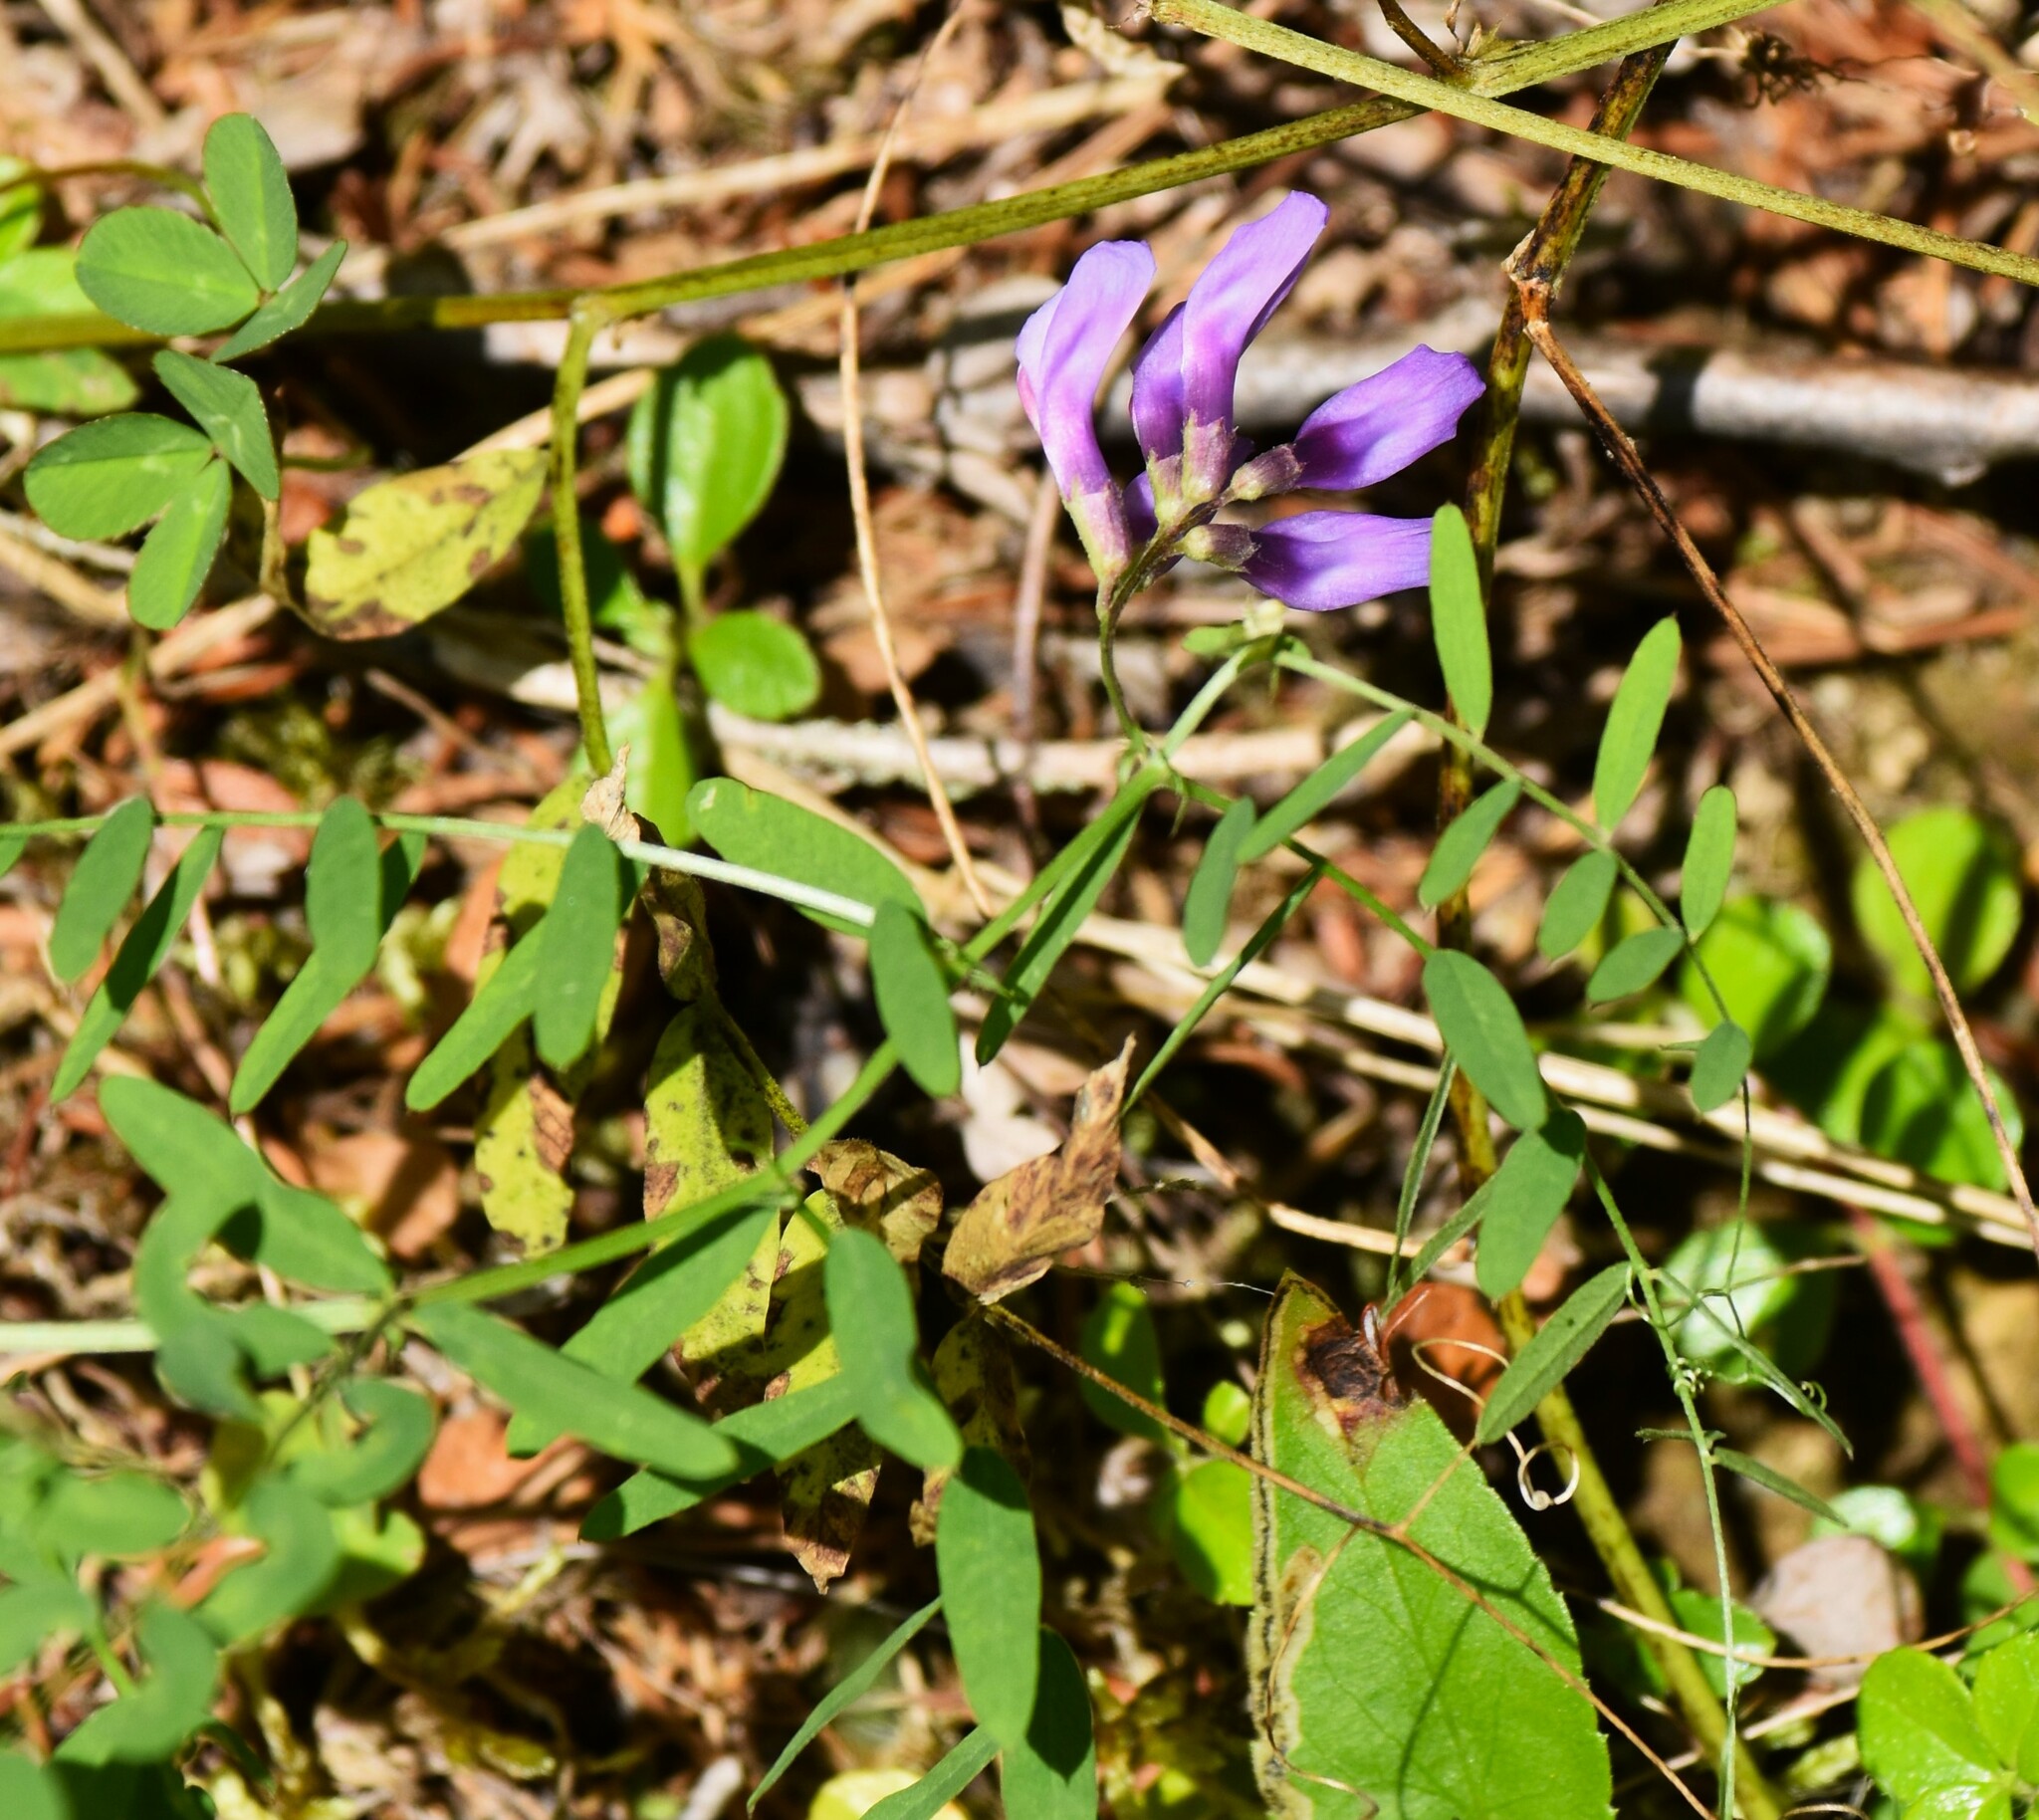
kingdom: Plantae
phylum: Tracheophyta
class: Magnoliopsida
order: Fabales
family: Fabaceae
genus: Vicia
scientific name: Vicia americana
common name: American vetch
